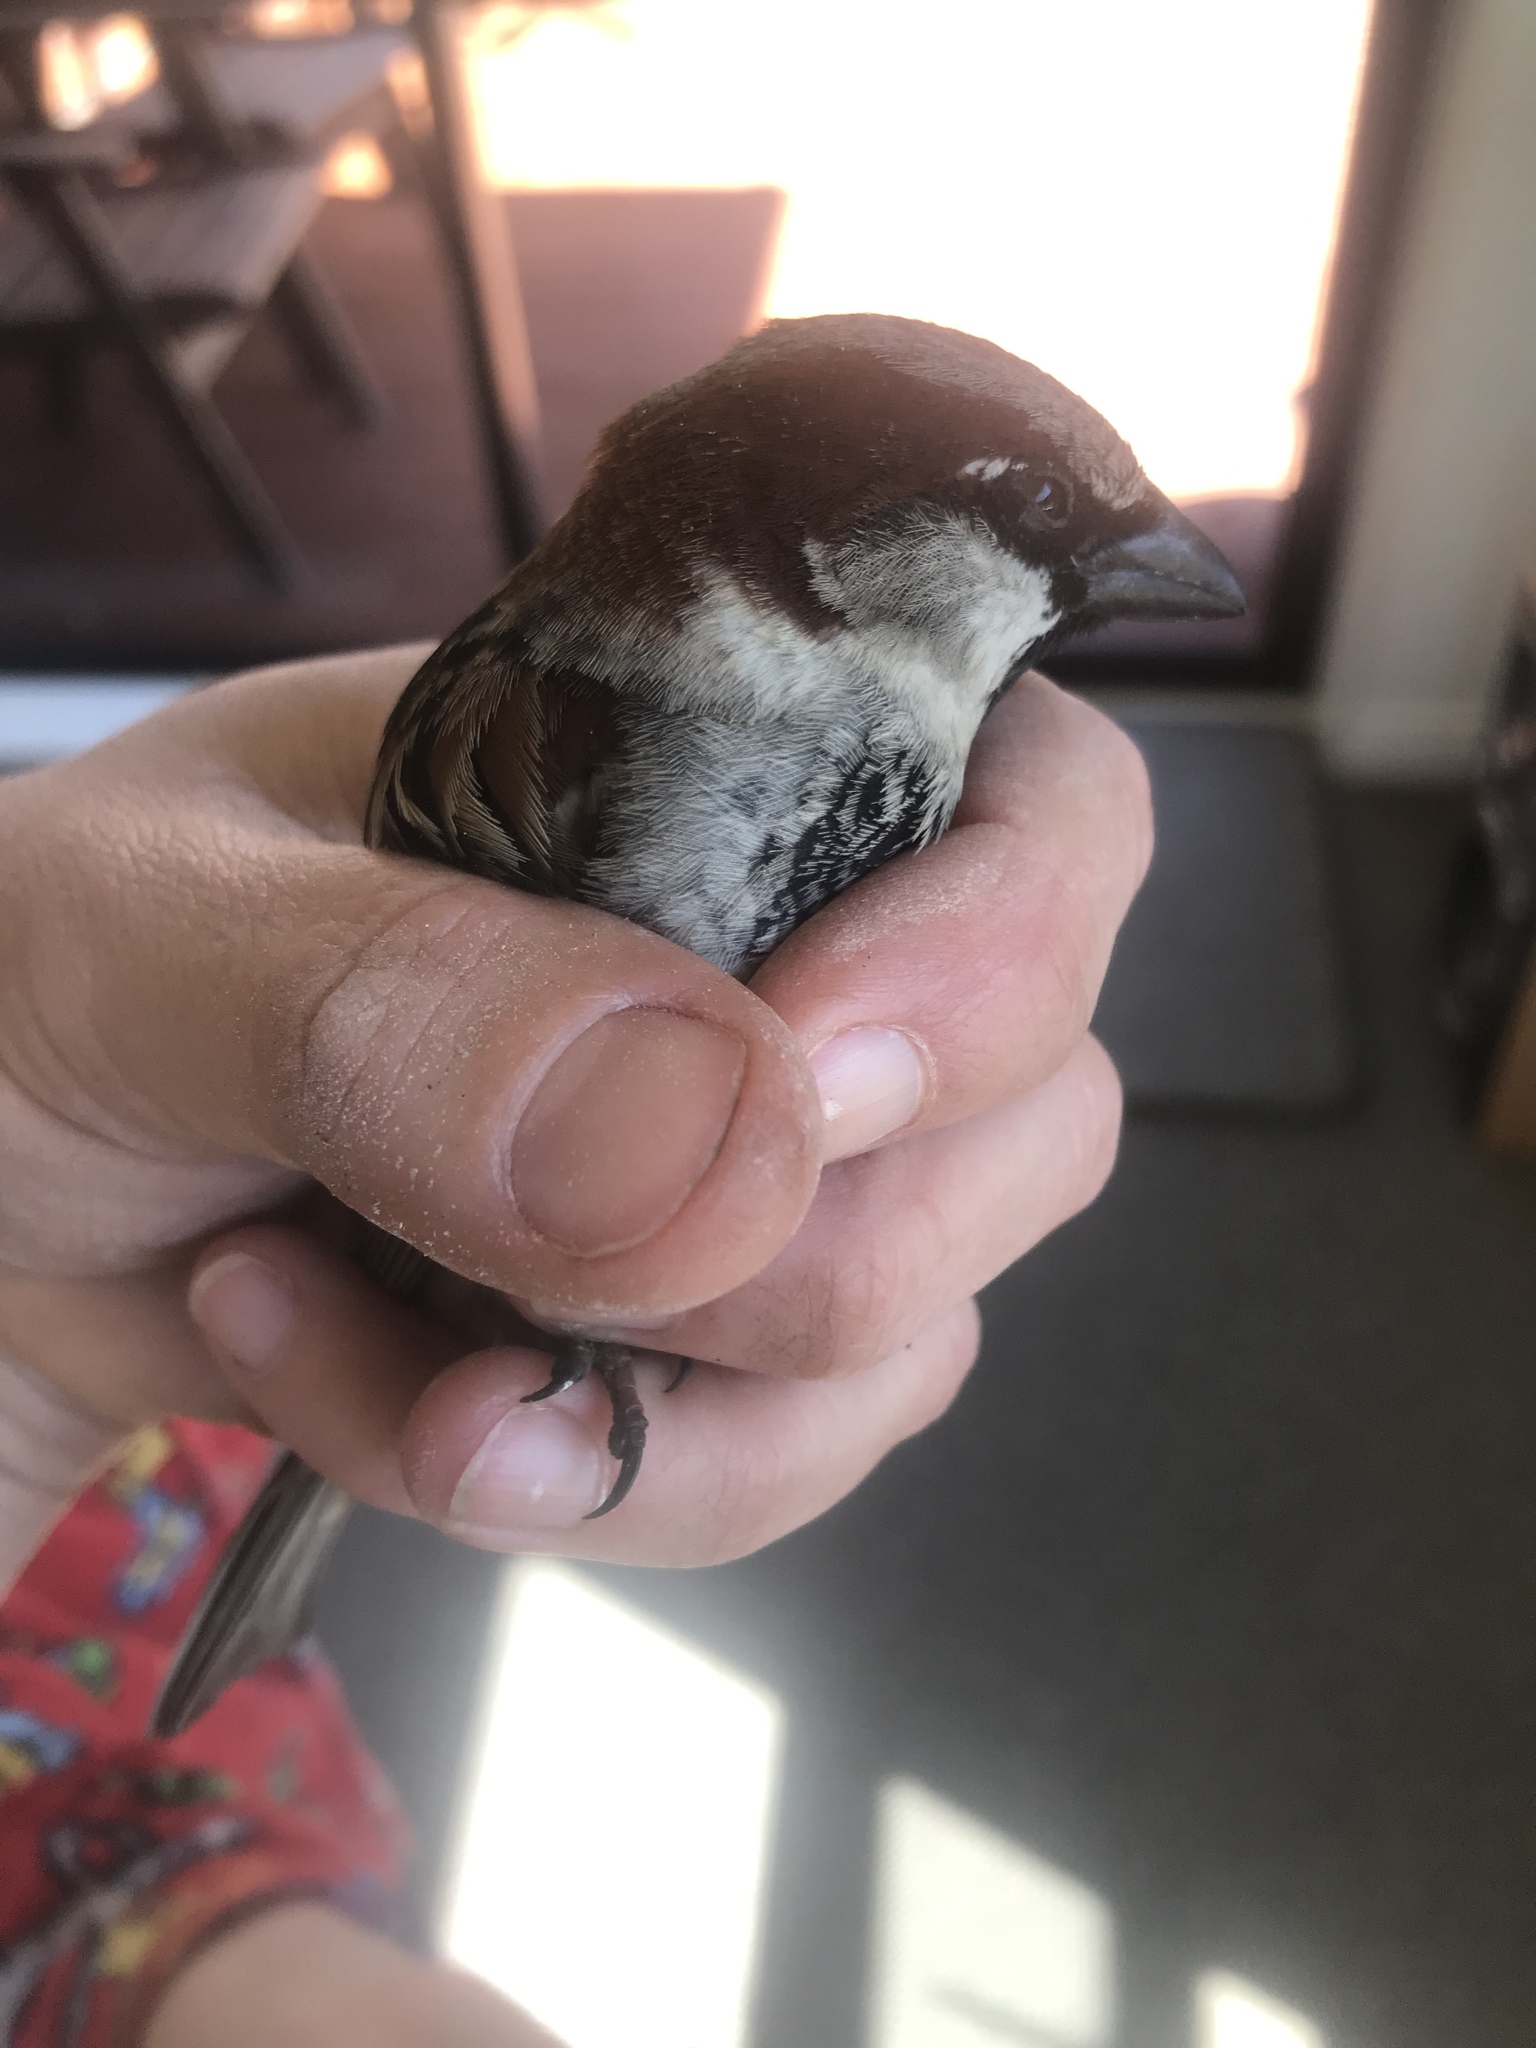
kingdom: Animalia
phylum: Chordata
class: Aves
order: Passeriformes
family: Passeridae
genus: Passer
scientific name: Passer domesticus
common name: House sparrow
